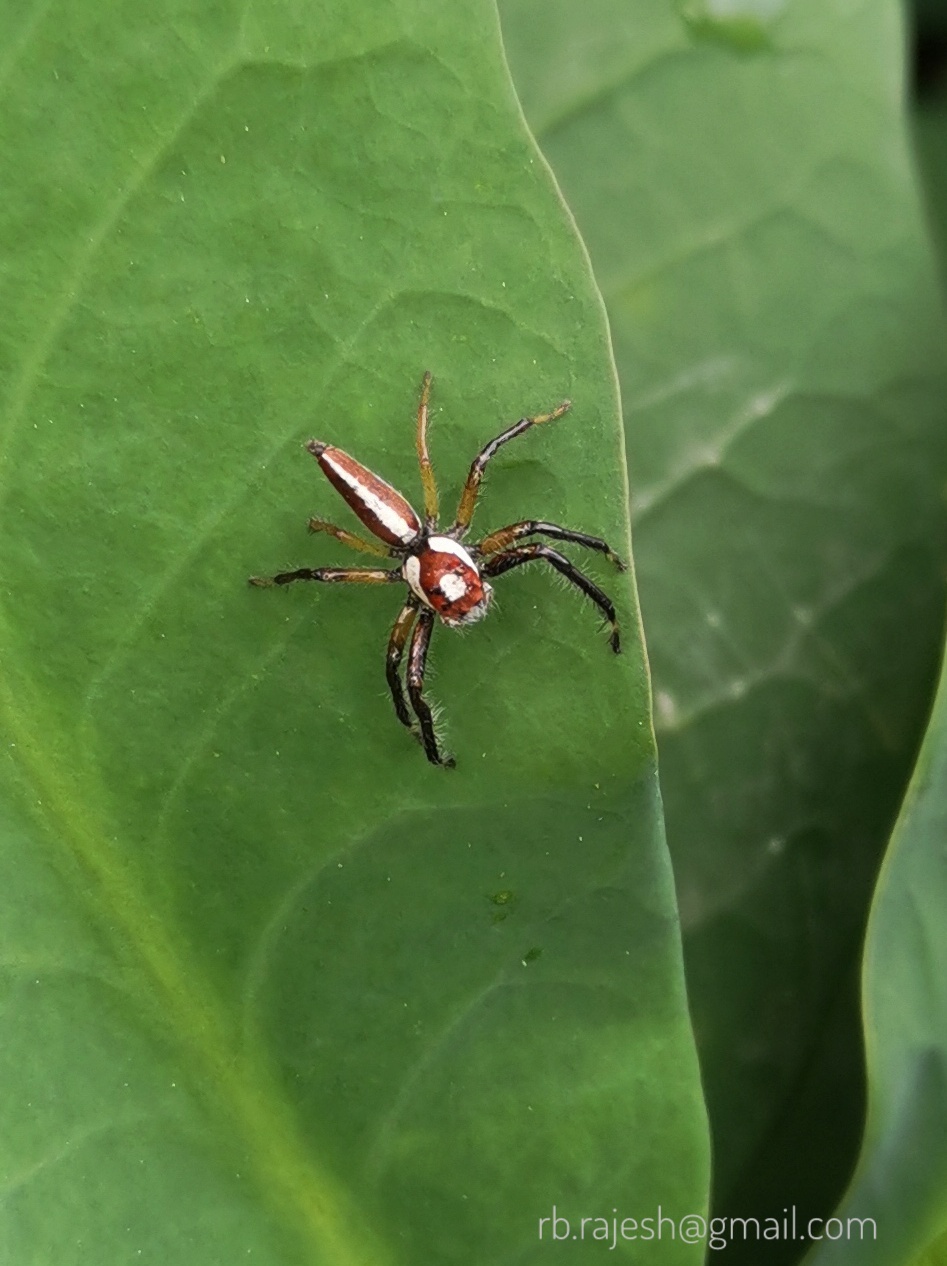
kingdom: Animalia
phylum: Arthropoda
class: Arachnida
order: Araneae
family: Salticidae
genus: Telamonia
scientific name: Telamonia dimidiata
